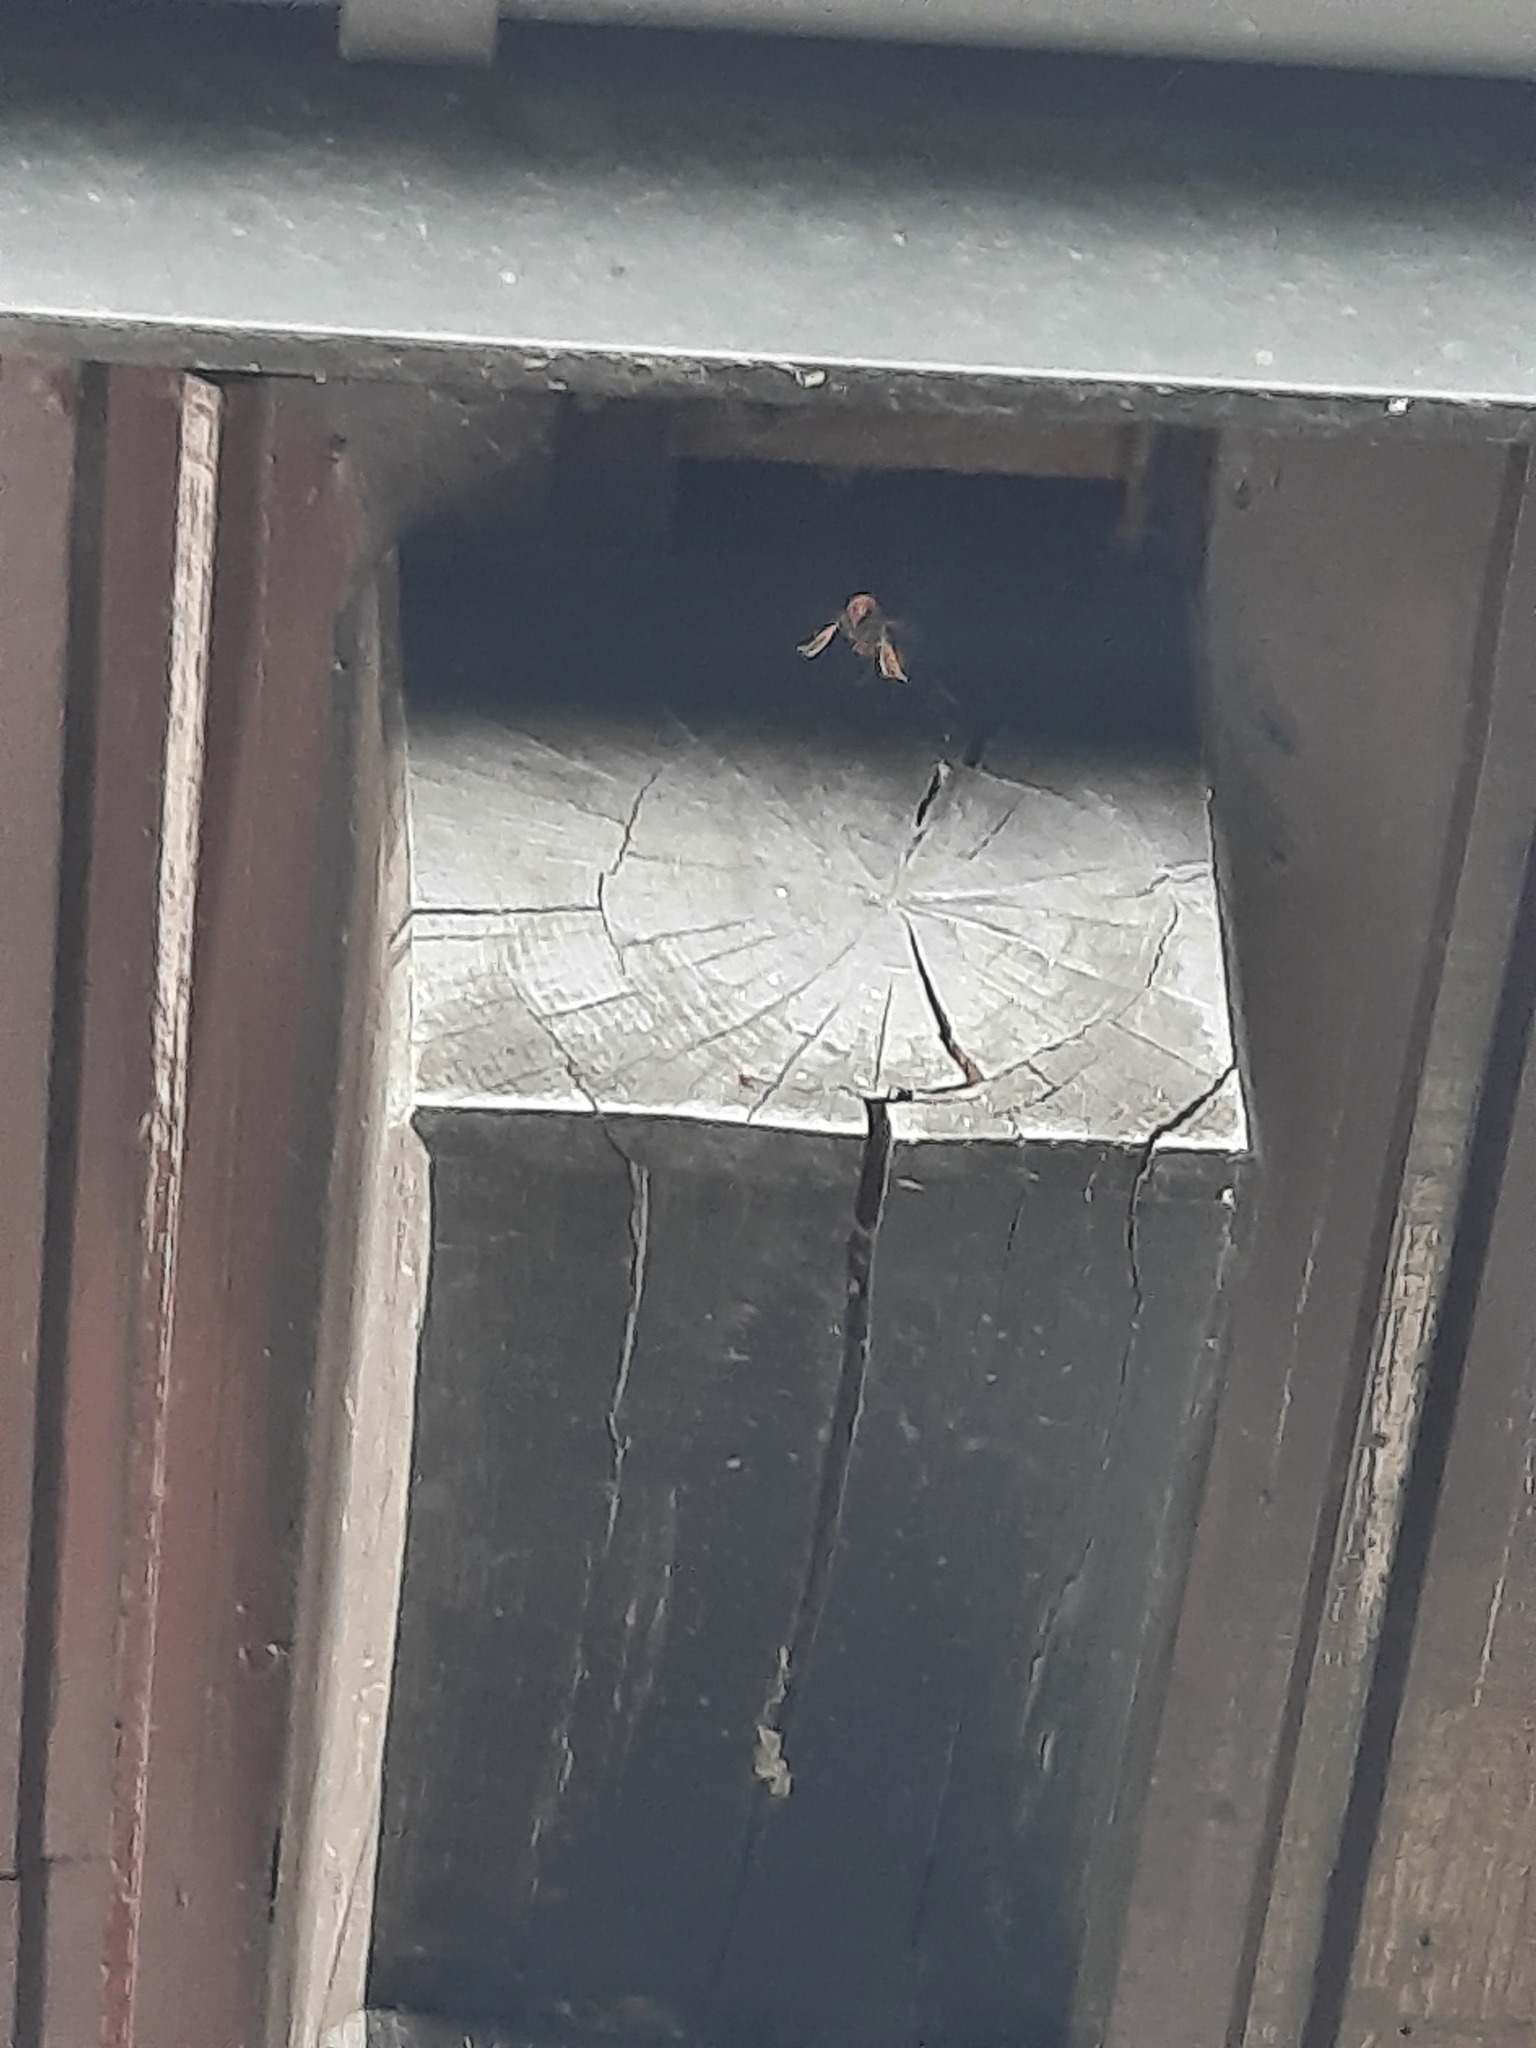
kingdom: Animalia
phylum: Arthropoda
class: Insecta
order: Hymenoptera
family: Vespidae
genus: Vespa
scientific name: Vespa velutina
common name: Asian hornet
